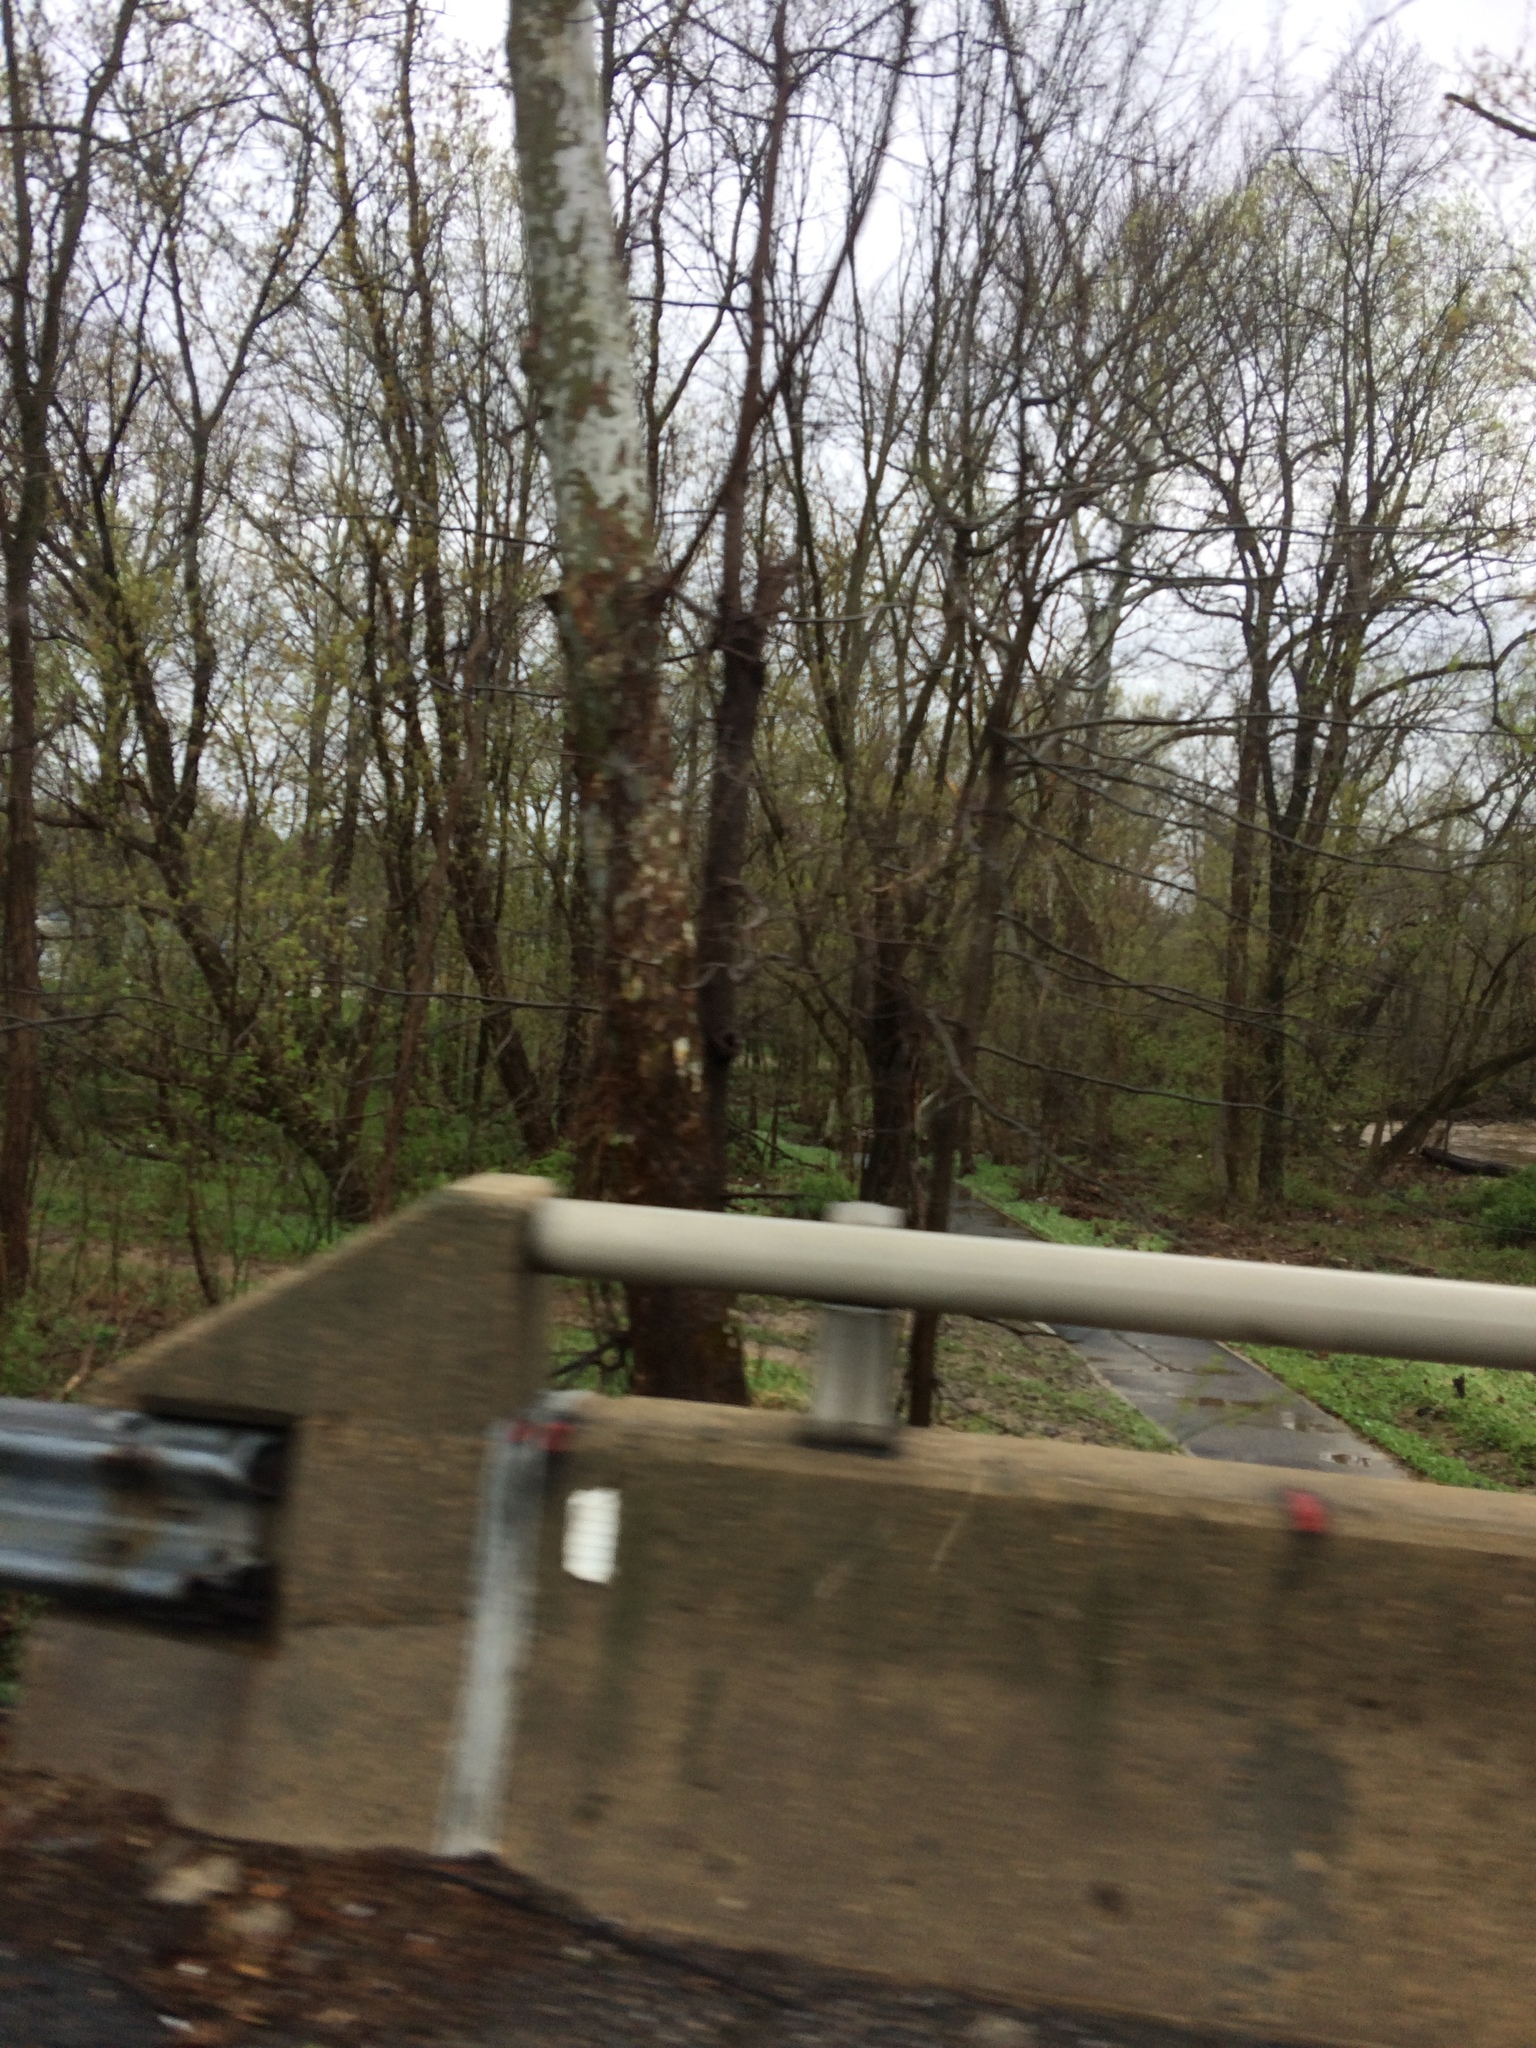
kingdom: Plantae
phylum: Tracheophyta
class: Magnoliopsida
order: Proteales
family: Platanaceae
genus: Platanus
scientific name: Platanus occidentalis
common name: American sycamore
